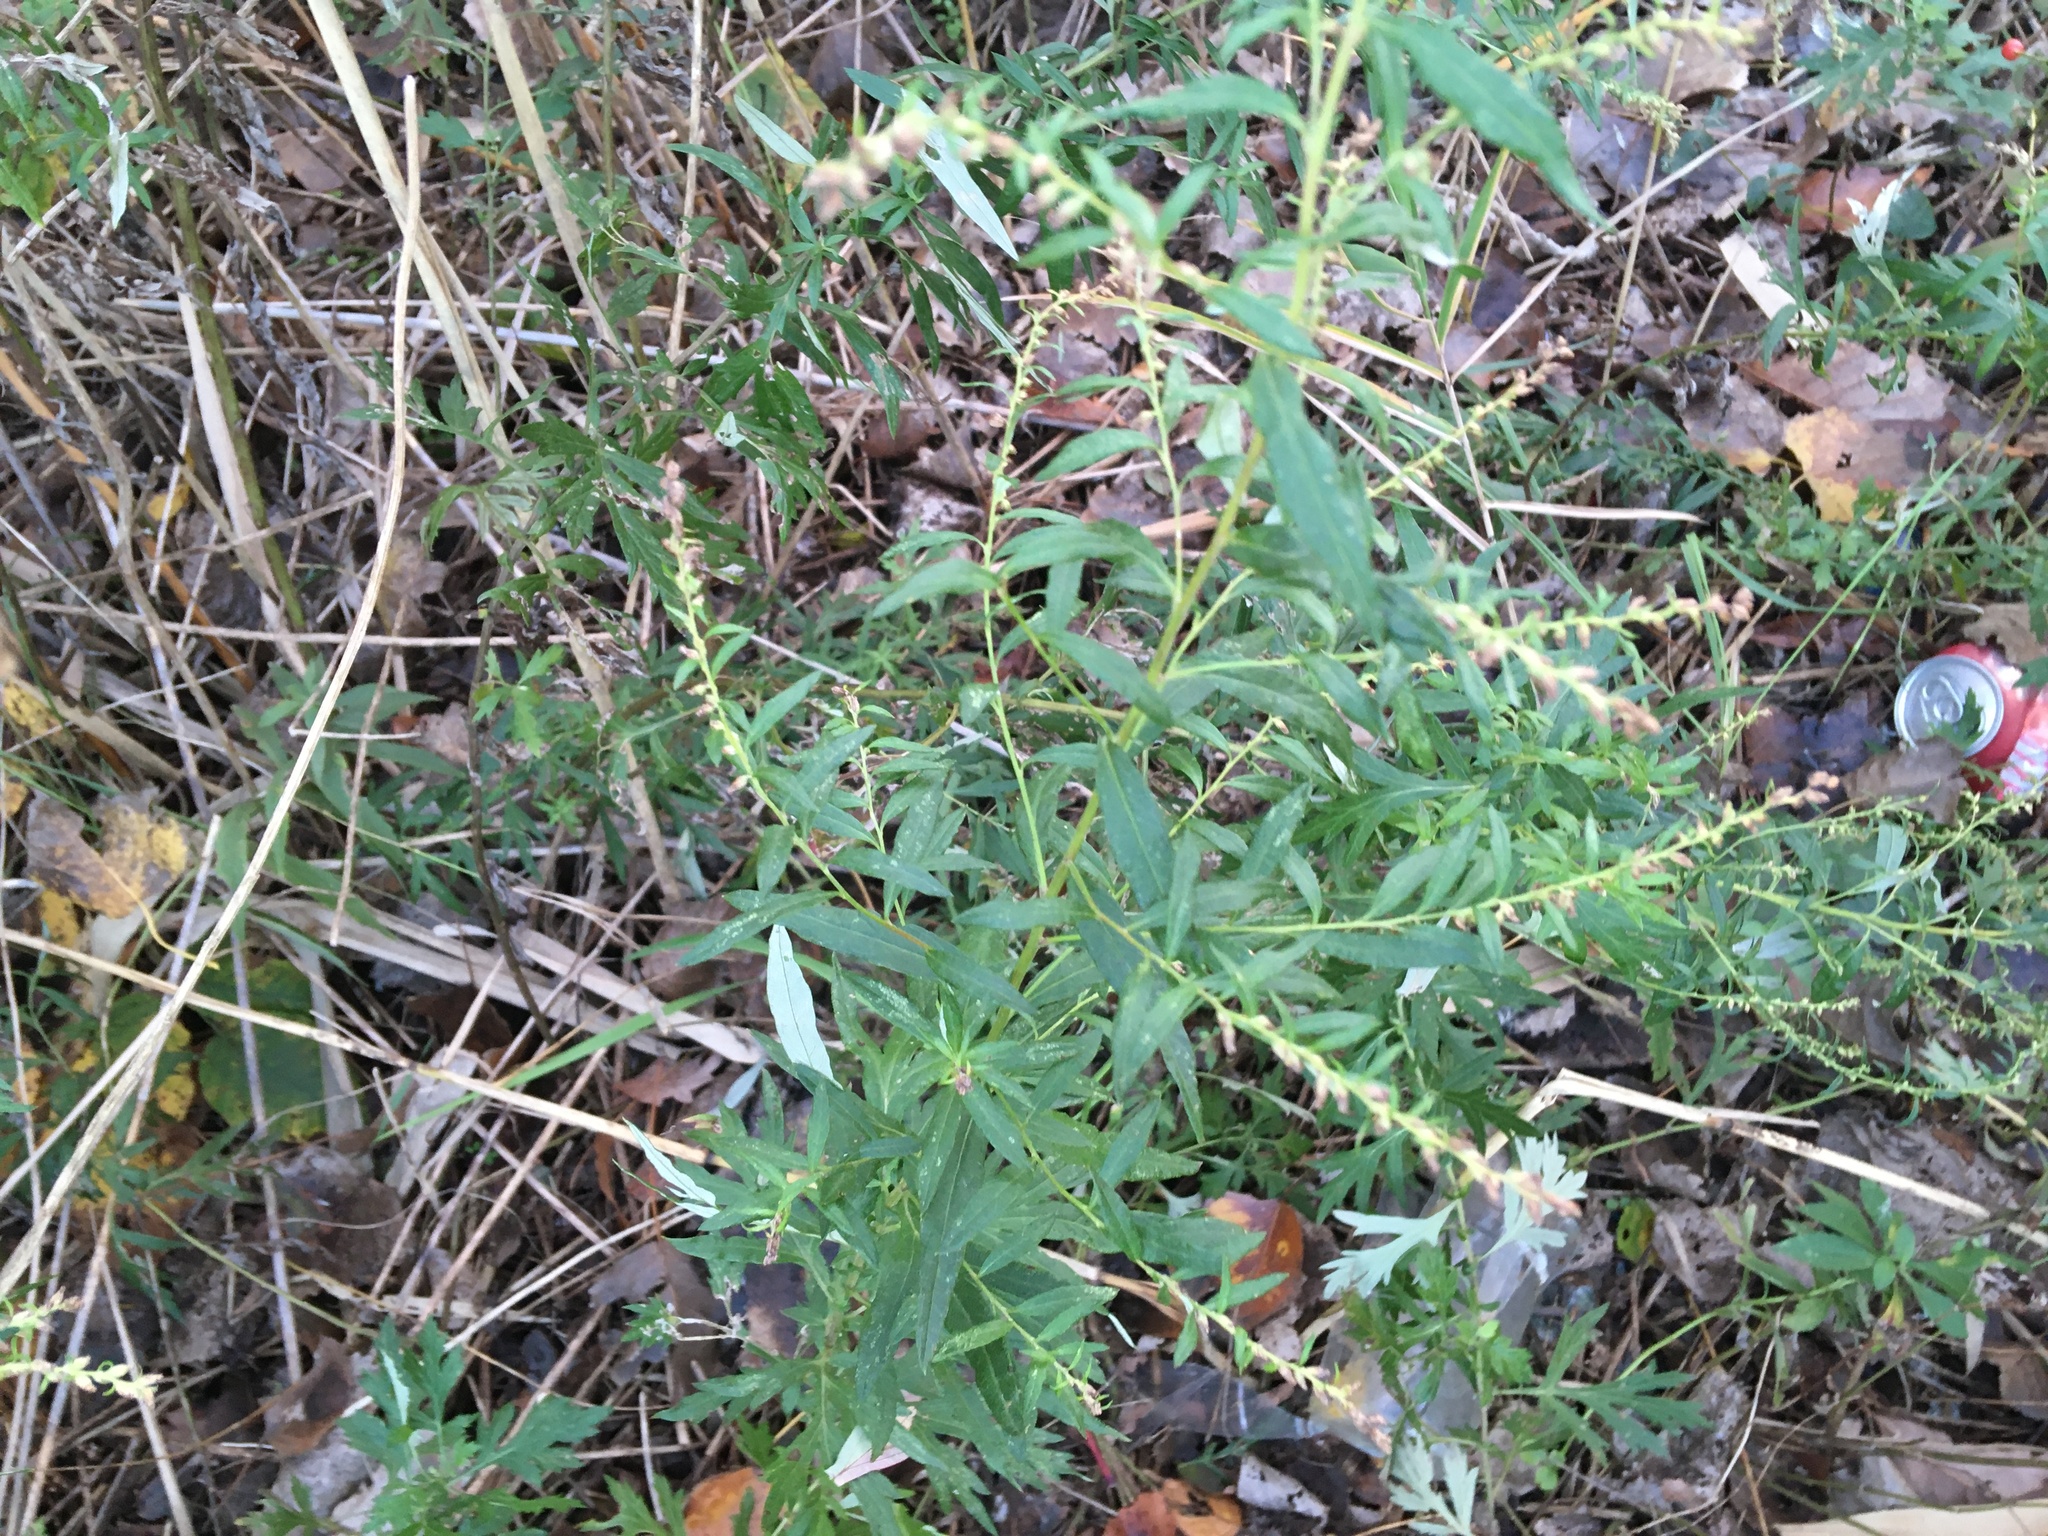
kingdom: Plantae
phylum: Tracheophyta
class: Magnoliopsida
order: Asterales
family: Asteraceae
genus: Artemisia
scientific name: Artemisia vulgaris
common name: Mugwort
